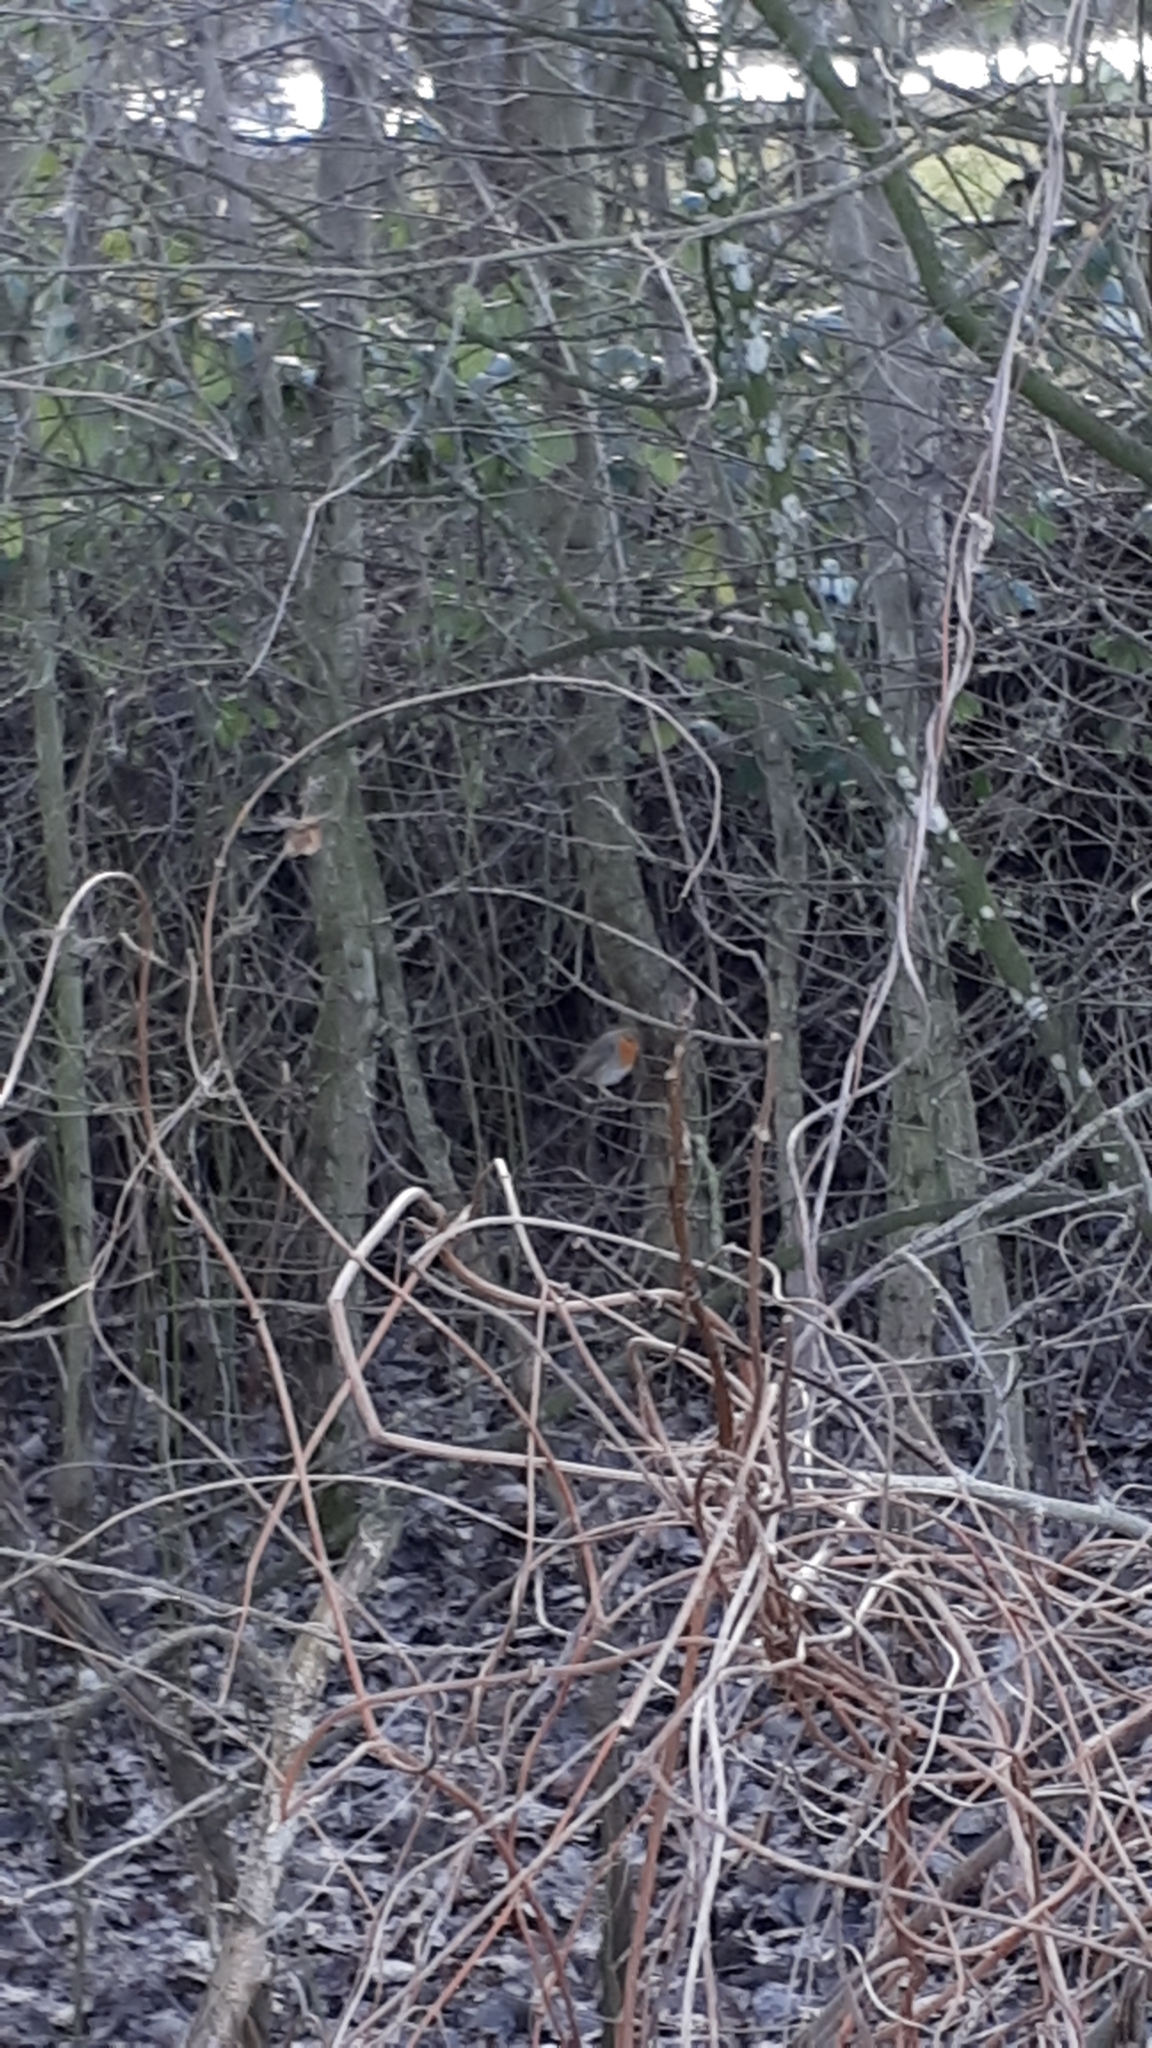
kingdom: Animalia
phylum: Chordata
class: Aves
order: Passeriformes
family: Muscicapidae
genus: Erithacus
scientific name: Erithacus rubecula
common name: European robin
